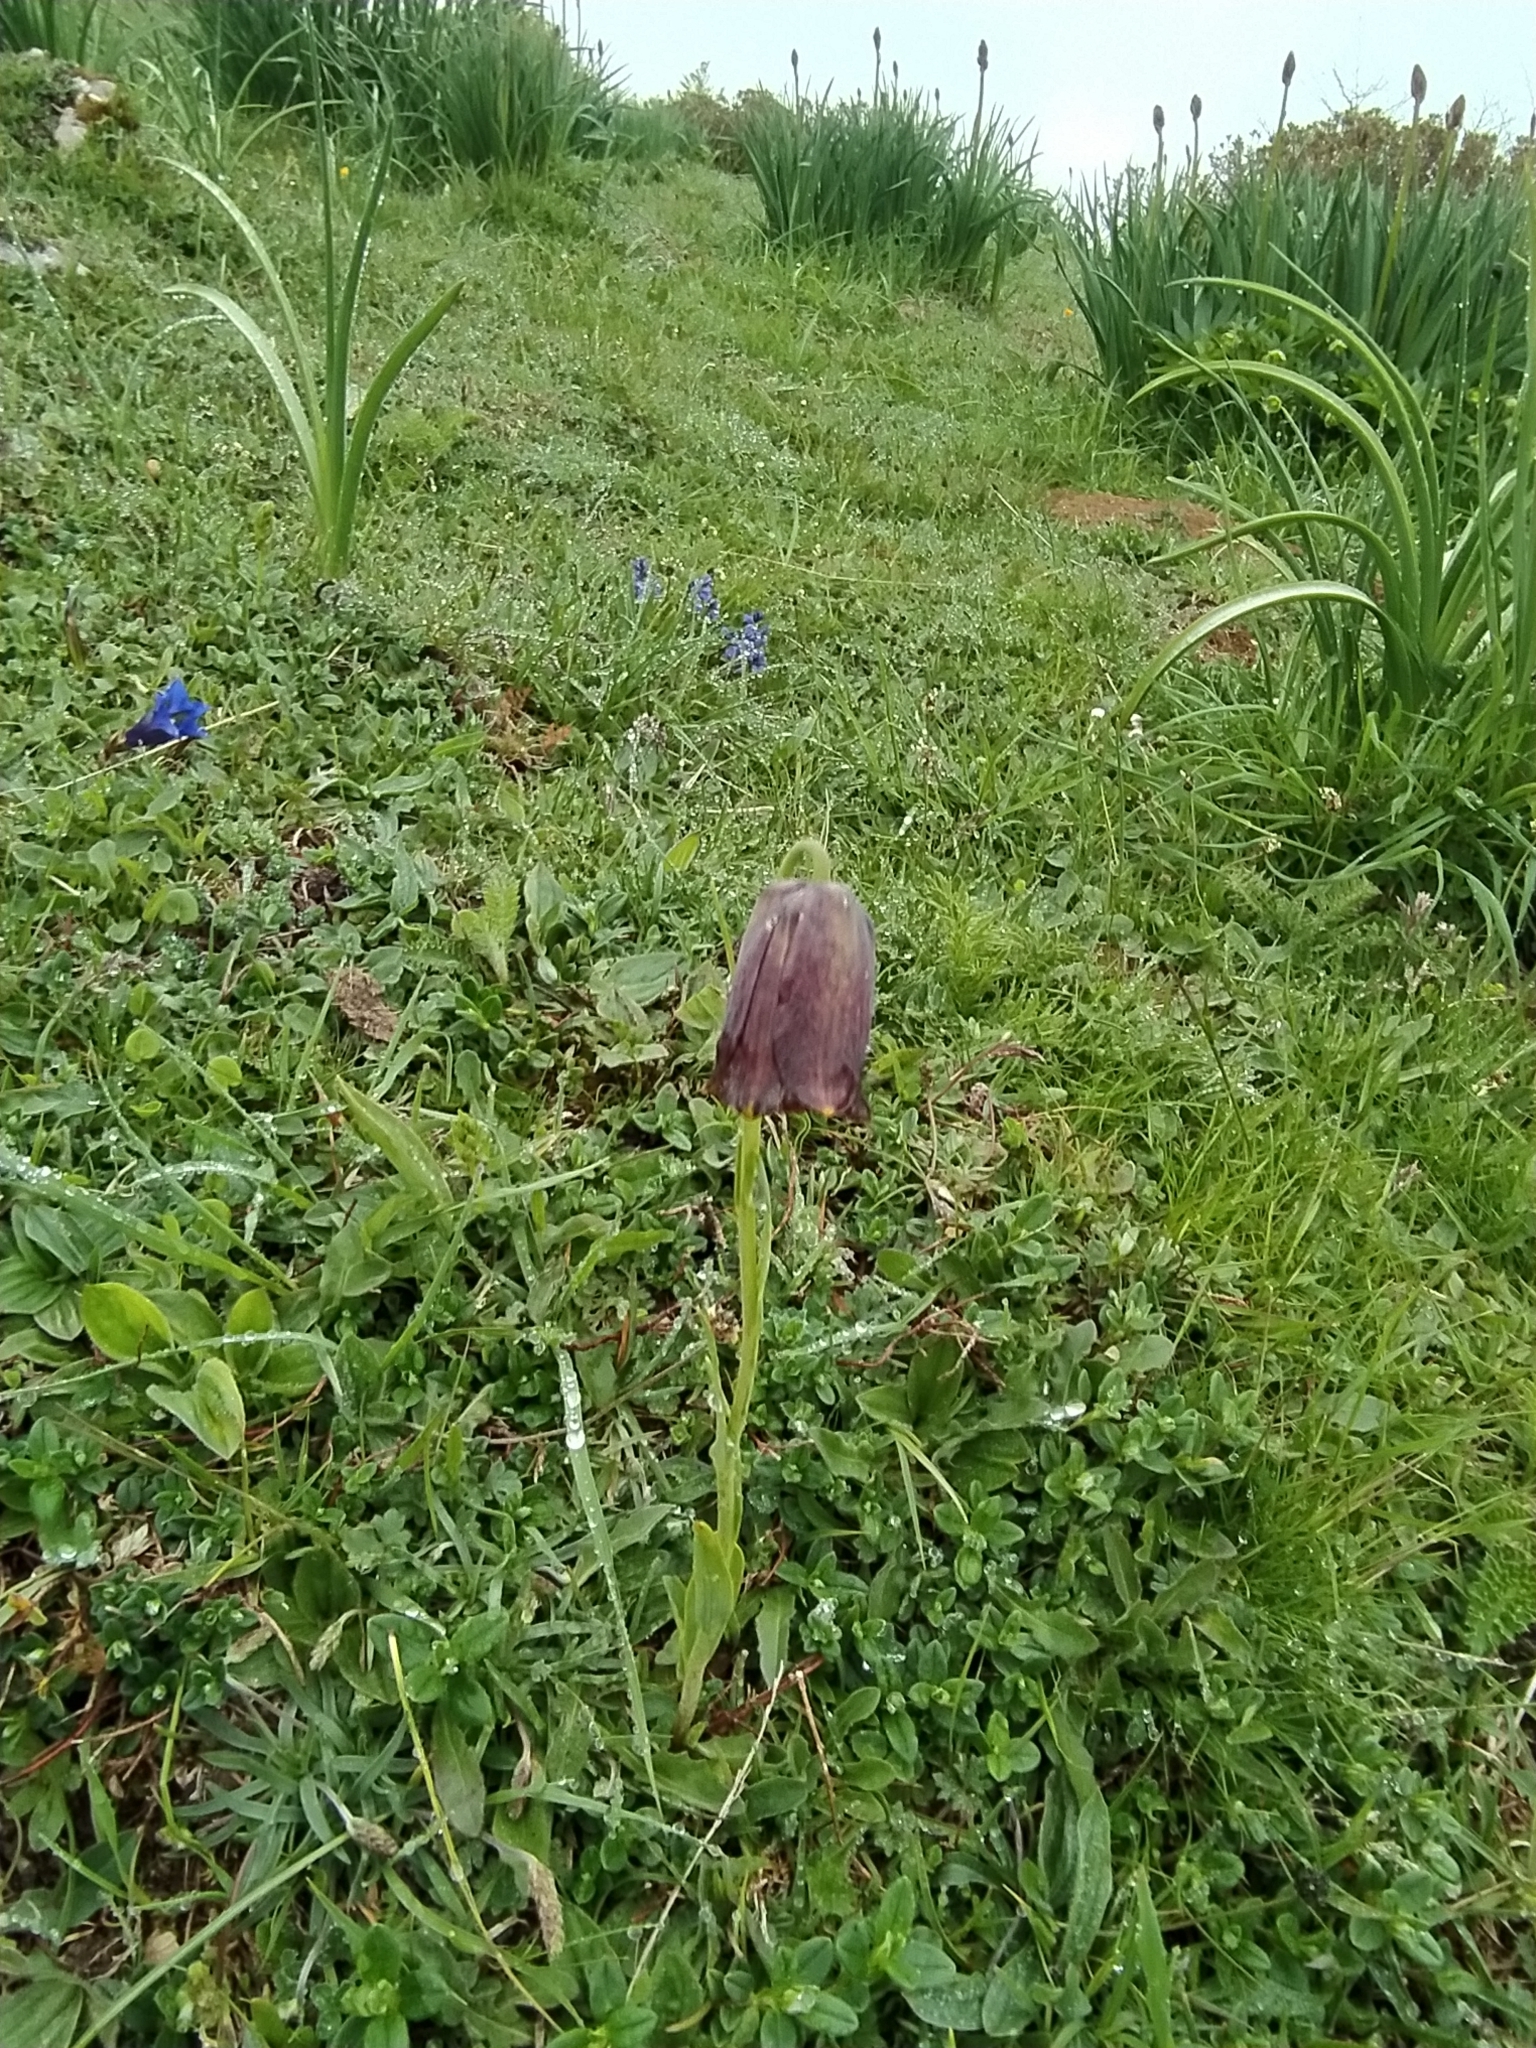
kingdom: Plantae
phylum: Tracheophyta
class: Liliopsida
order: Liliales
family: Liliaceae
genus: Fritillaria
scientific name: Fritillaria pyrenaica
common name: Pyrenean snake's-head
